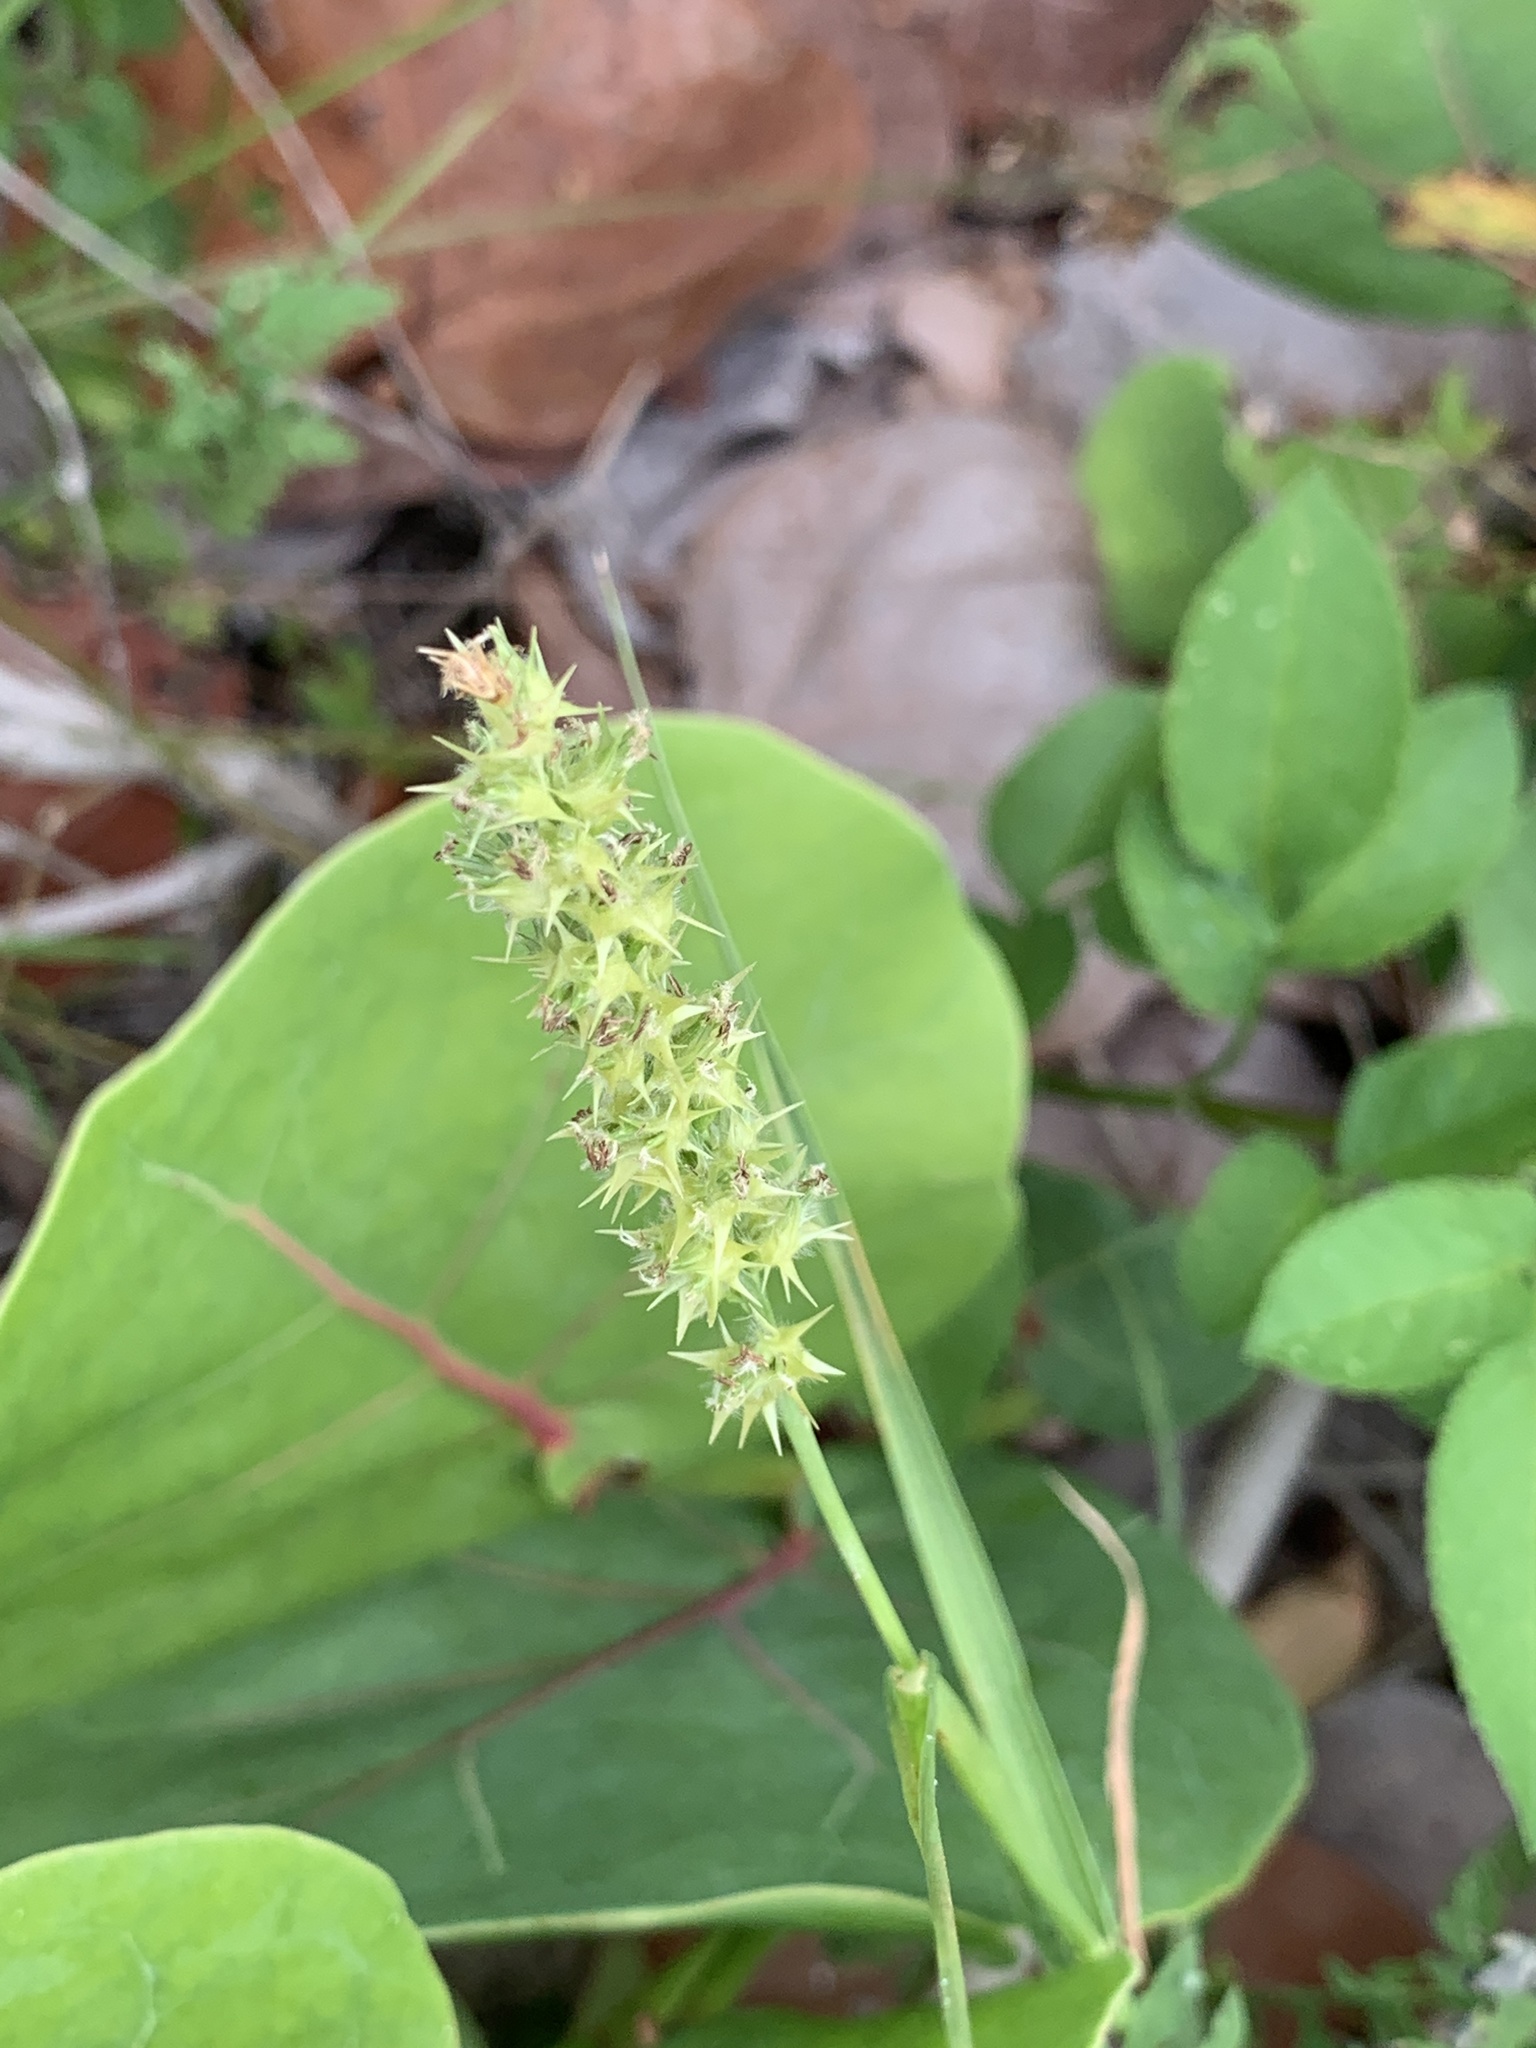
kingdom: Plantae
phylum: Tracheophyta
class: Liliopsida
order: Poales
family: Poaceae
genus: Cenchrus
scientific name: Cenchrus spinifex
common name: Coast sandbur
